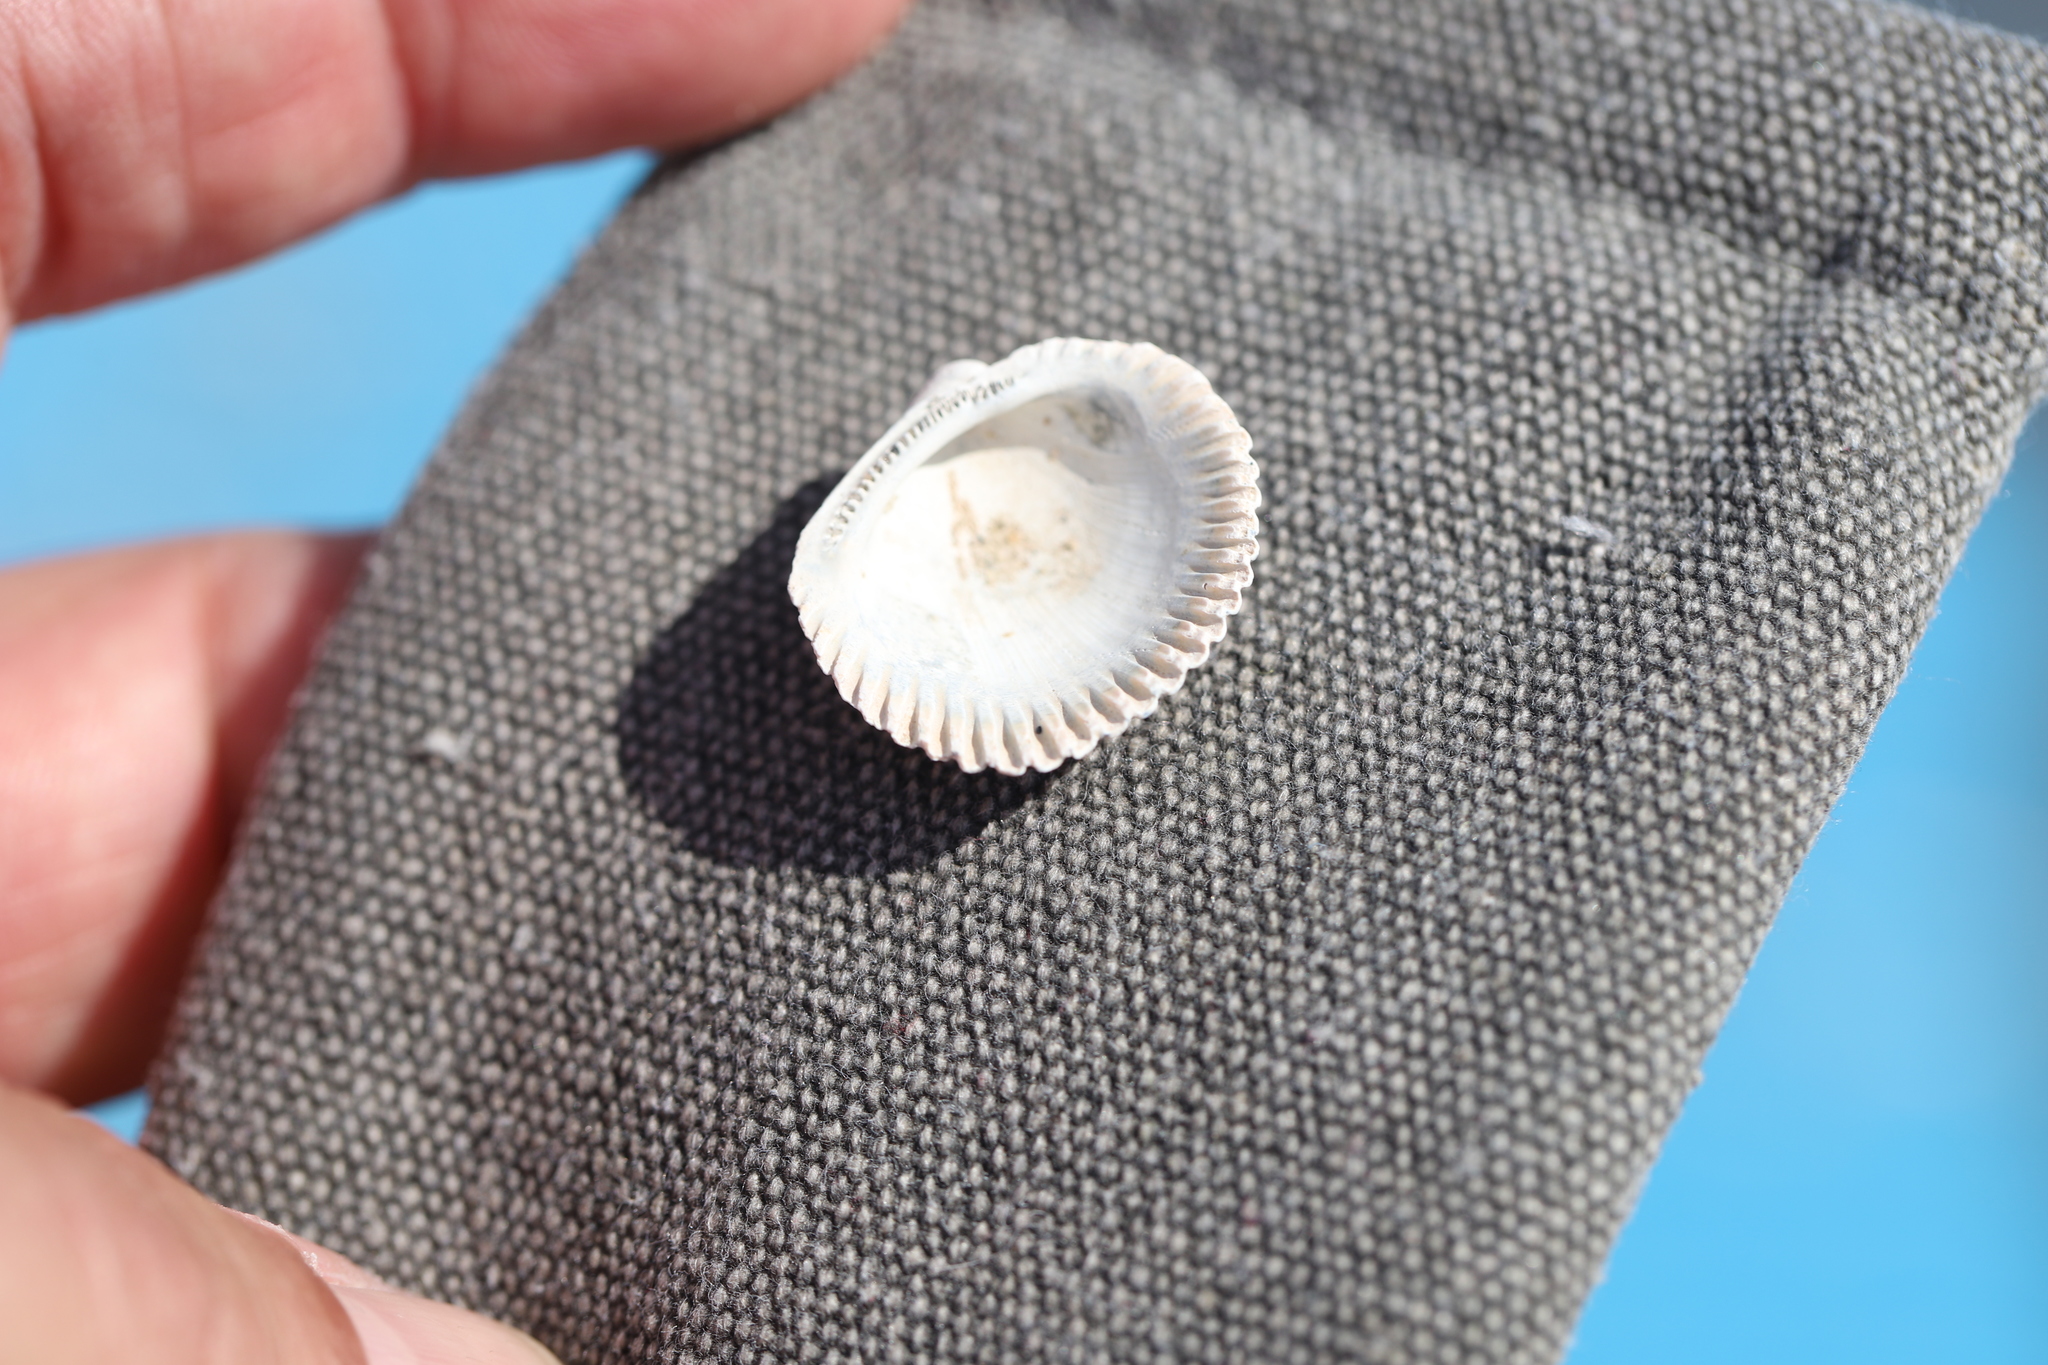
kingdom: Animalia
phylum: Mollusca
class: Bivalvia
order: Arcida
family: Arcidae
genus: Lunarca
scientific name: Lunarca ovalis
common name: Blood ark
